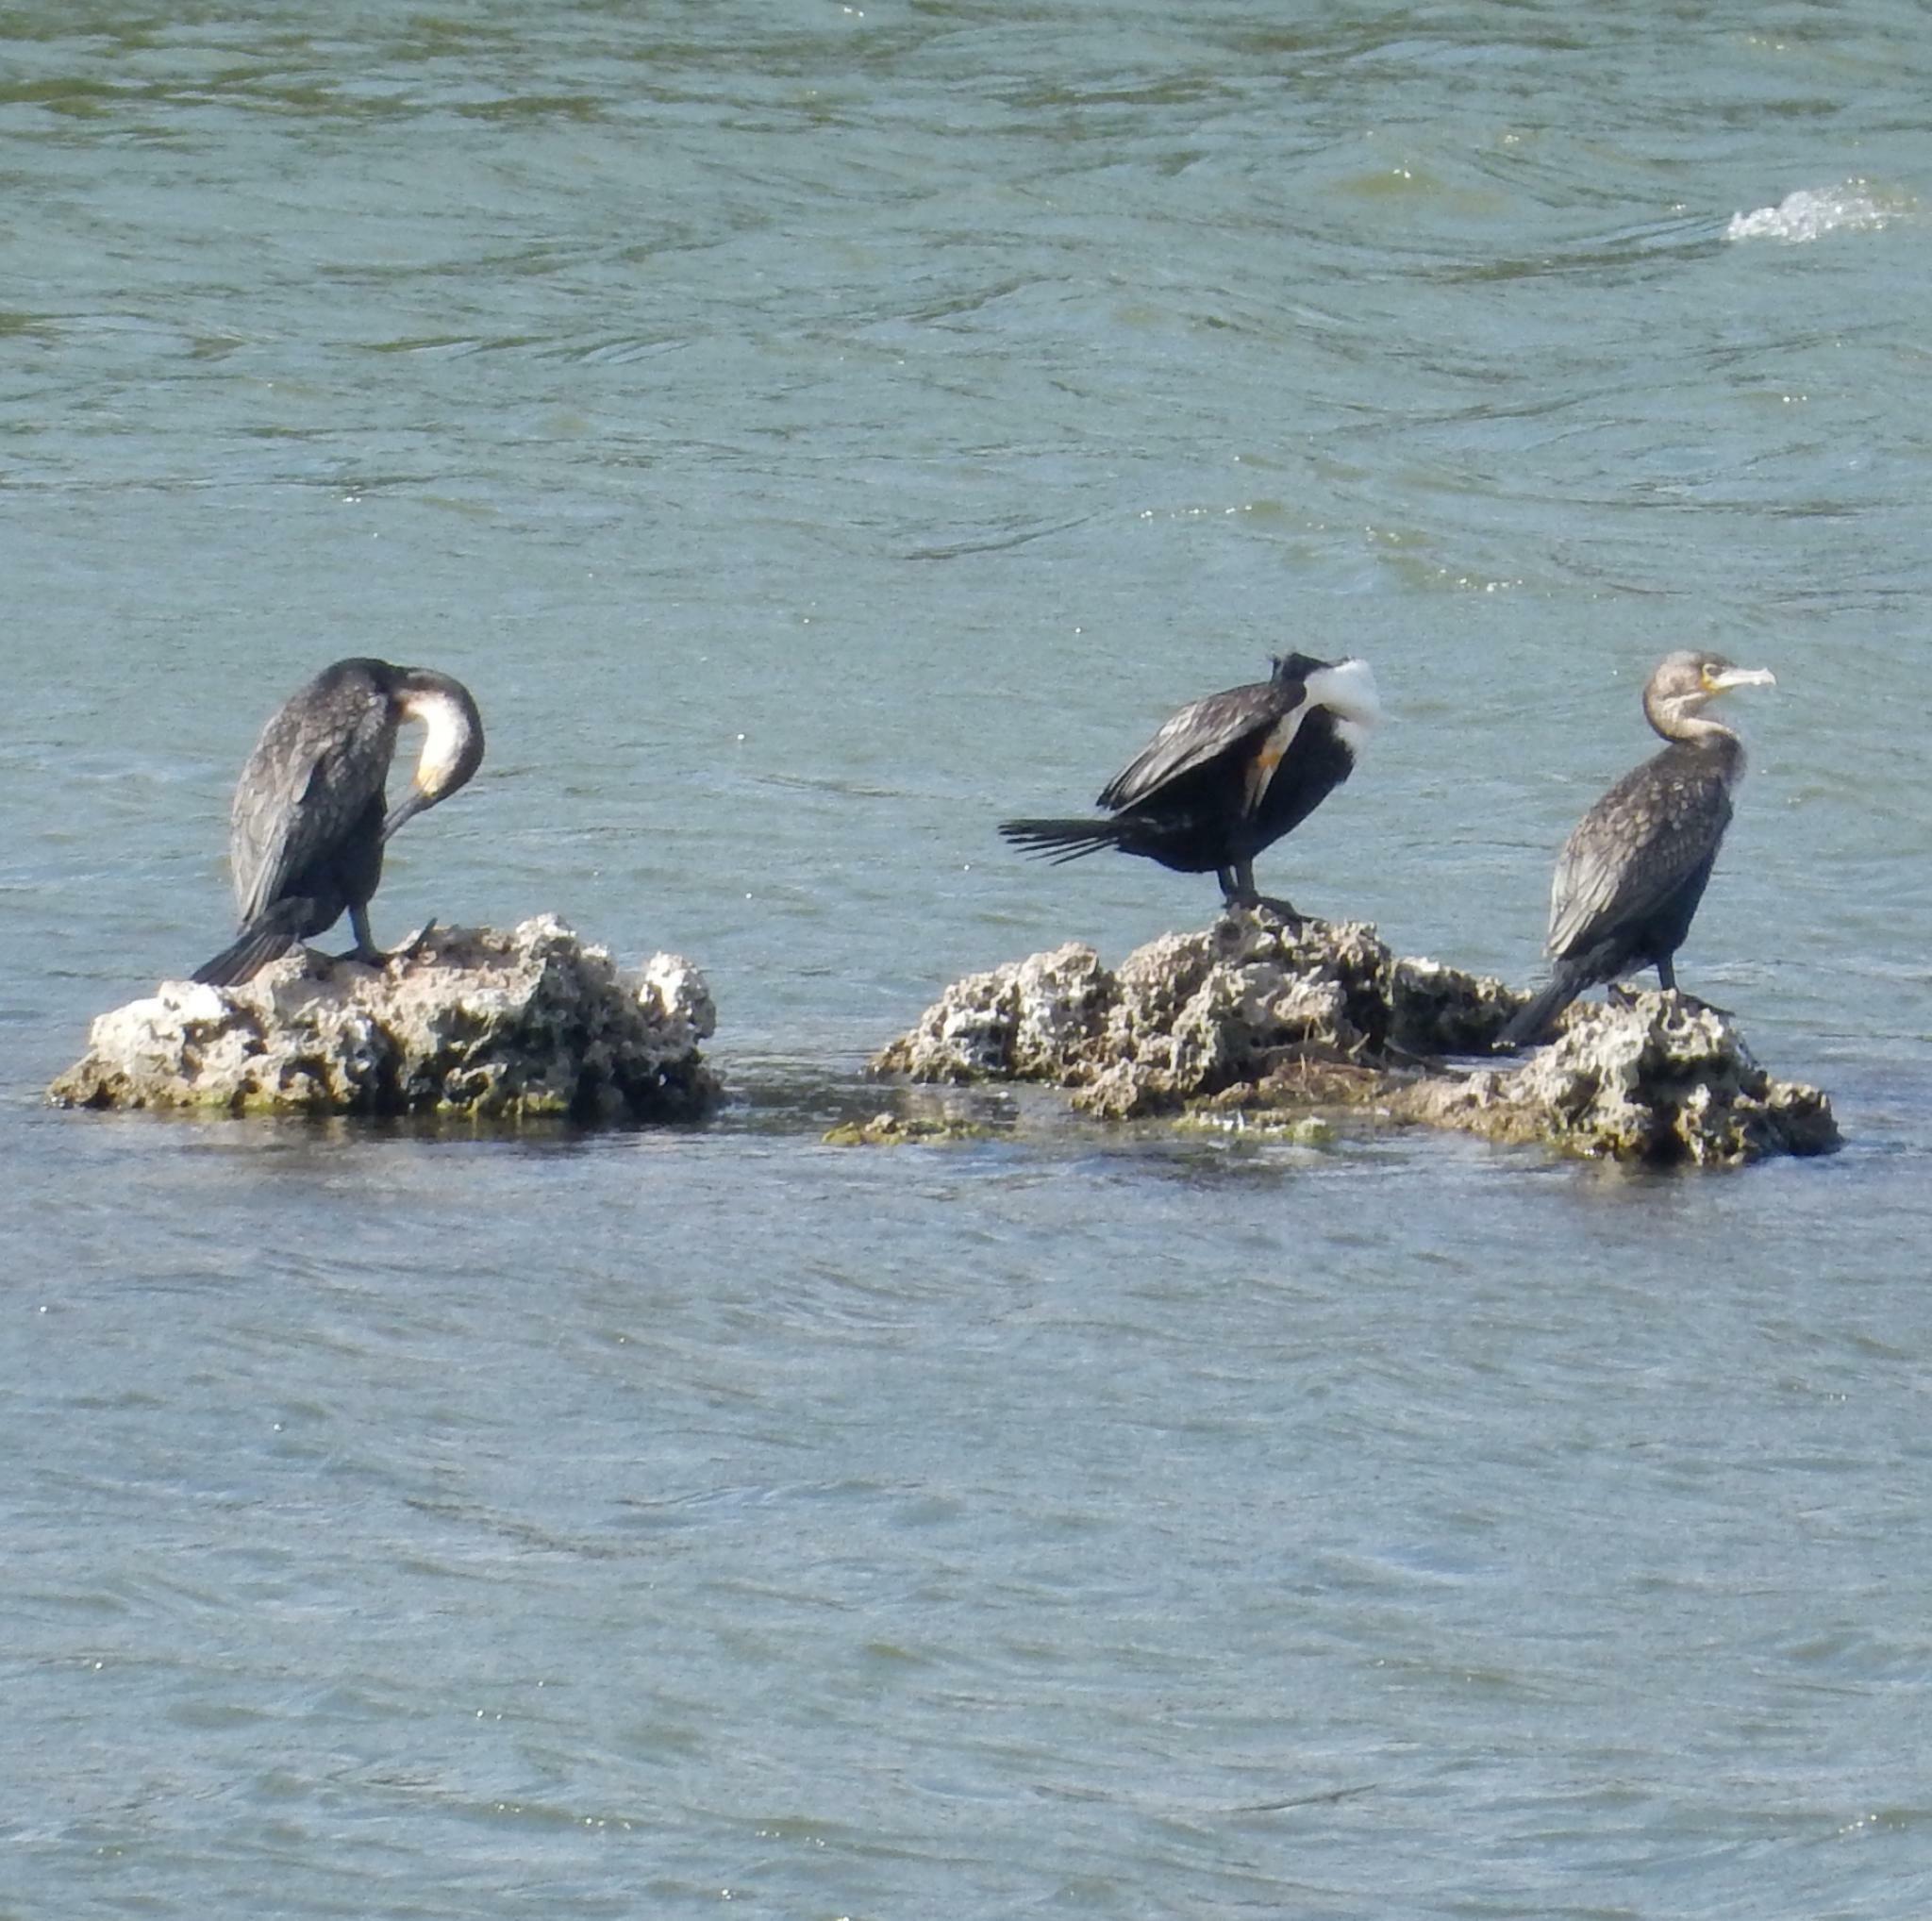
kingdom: Animalia
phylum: Chordata
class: Aves
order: Suliformes
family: Phalacrocoracidae
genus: Phalacrocorax
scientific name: Phalacrocorax carbo
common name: Great cormorant
